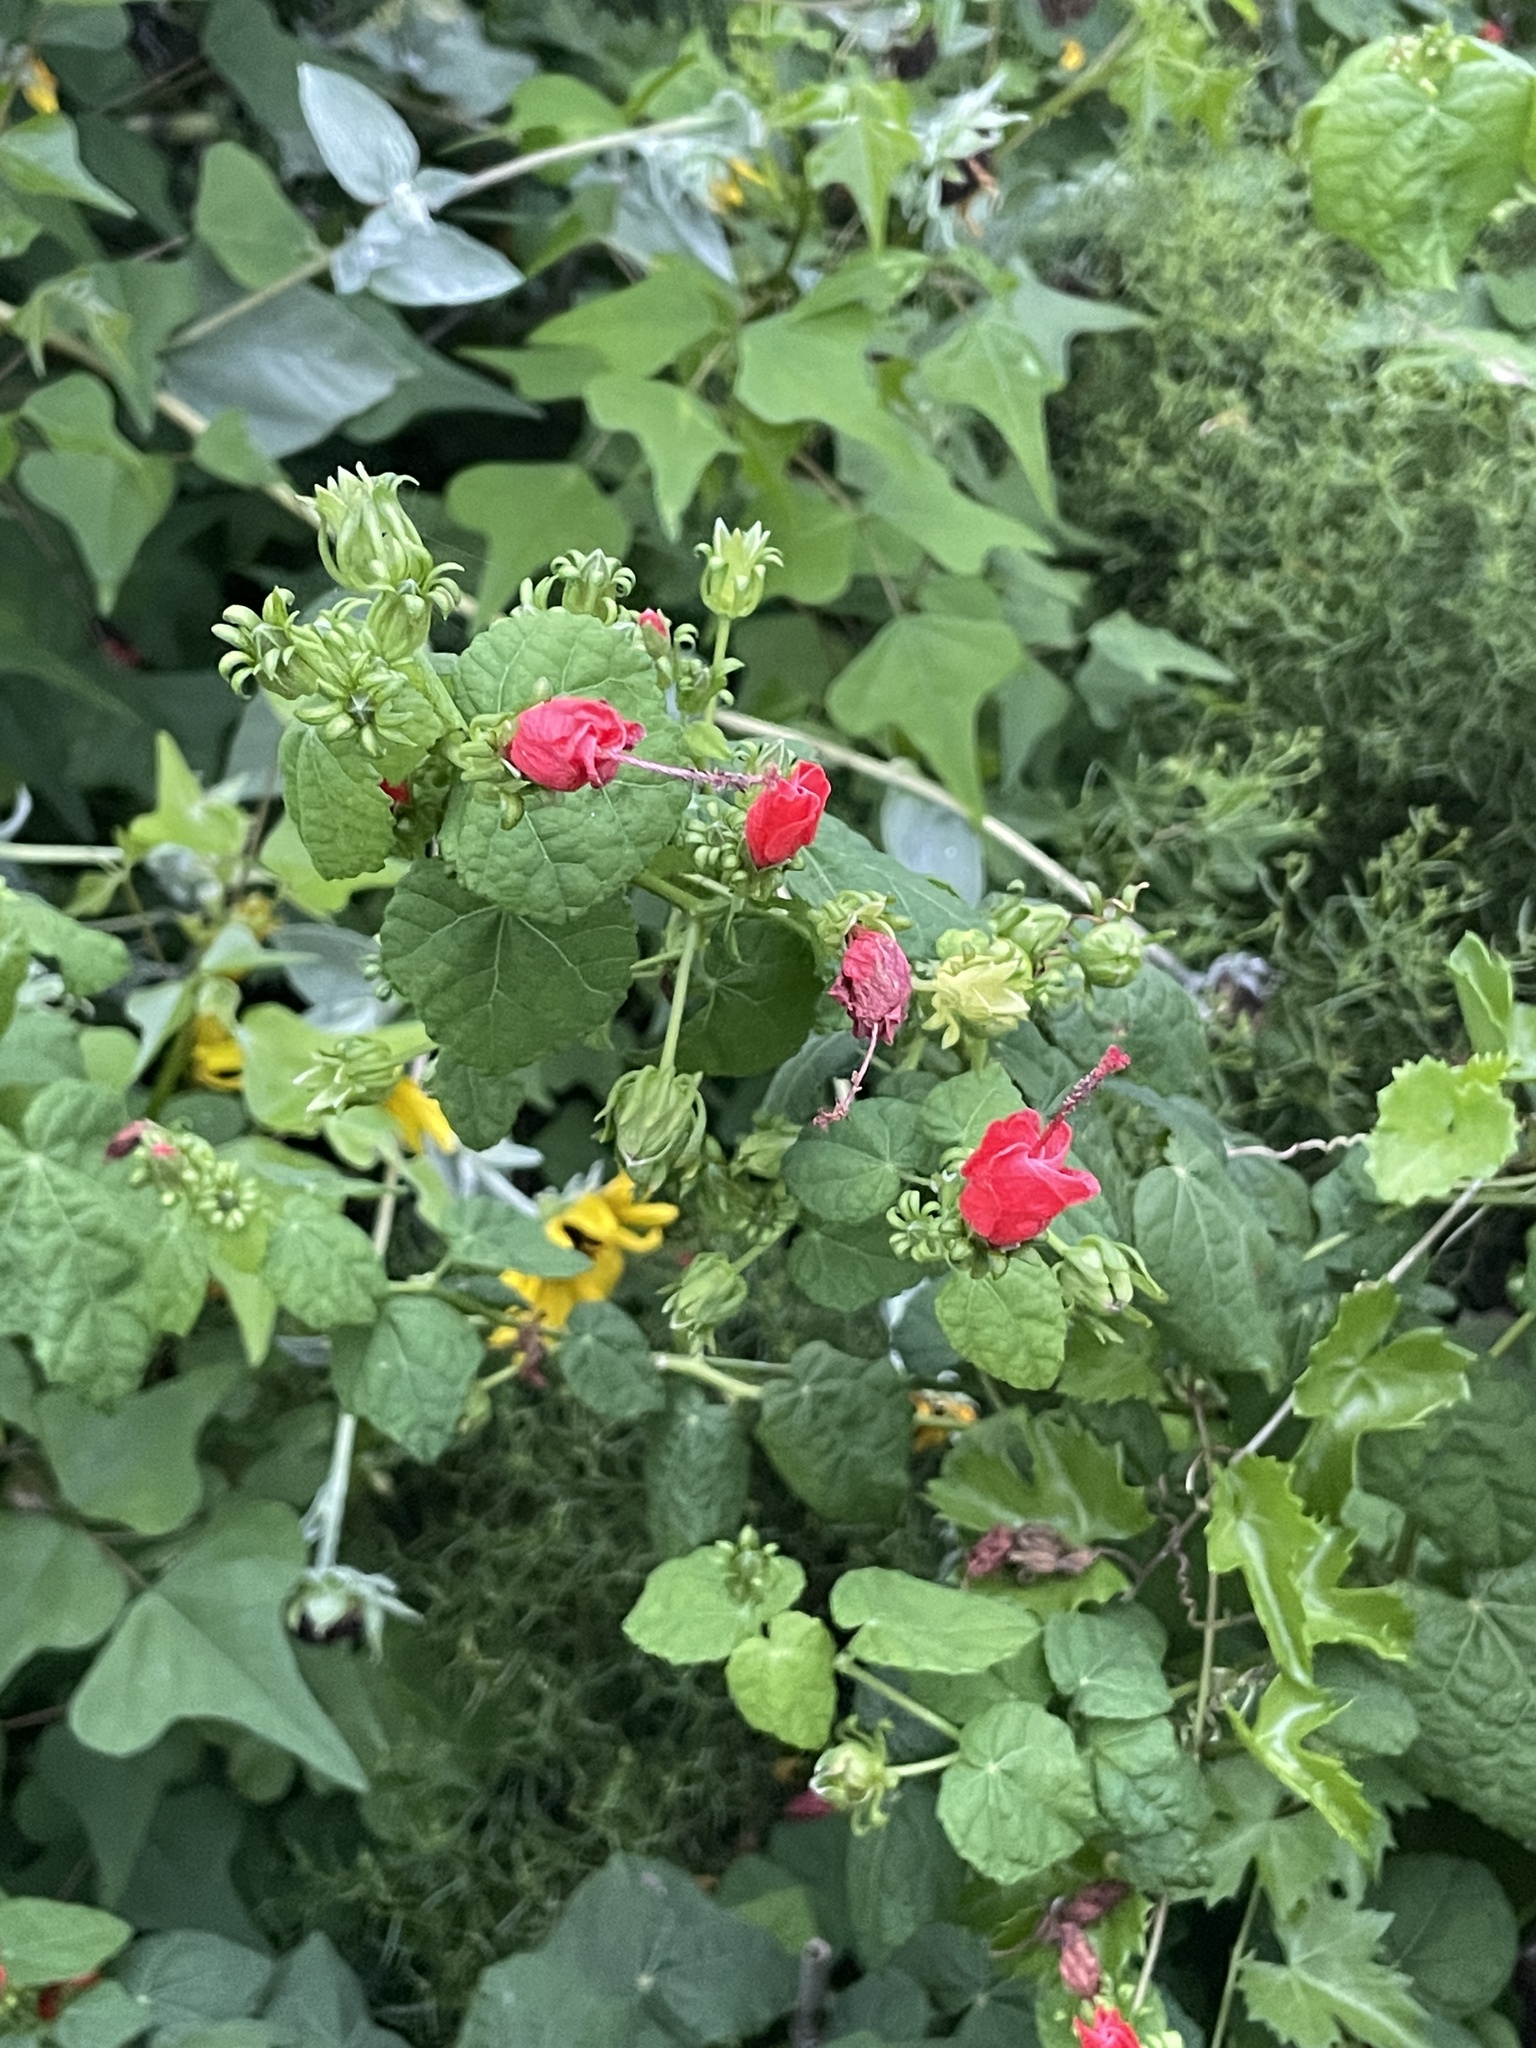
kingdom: Plantae
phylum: Tracheophyta
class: Magnoliopsida
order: Malvales
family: Malvaceae
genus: Malvaviscus
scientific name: Malvaviscus arboreus
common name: Wax mallow
